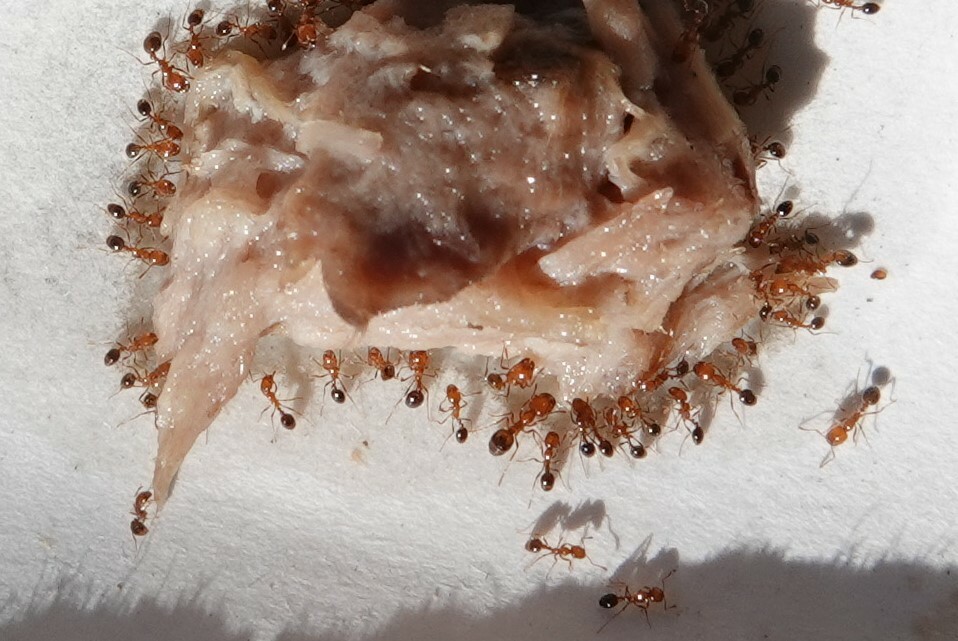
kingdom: Animalia
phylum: Arthropoda
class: Insecta
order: Hymenoptera
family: Formicidae
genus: Solenopsis
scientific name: Solenopsis xyloni
